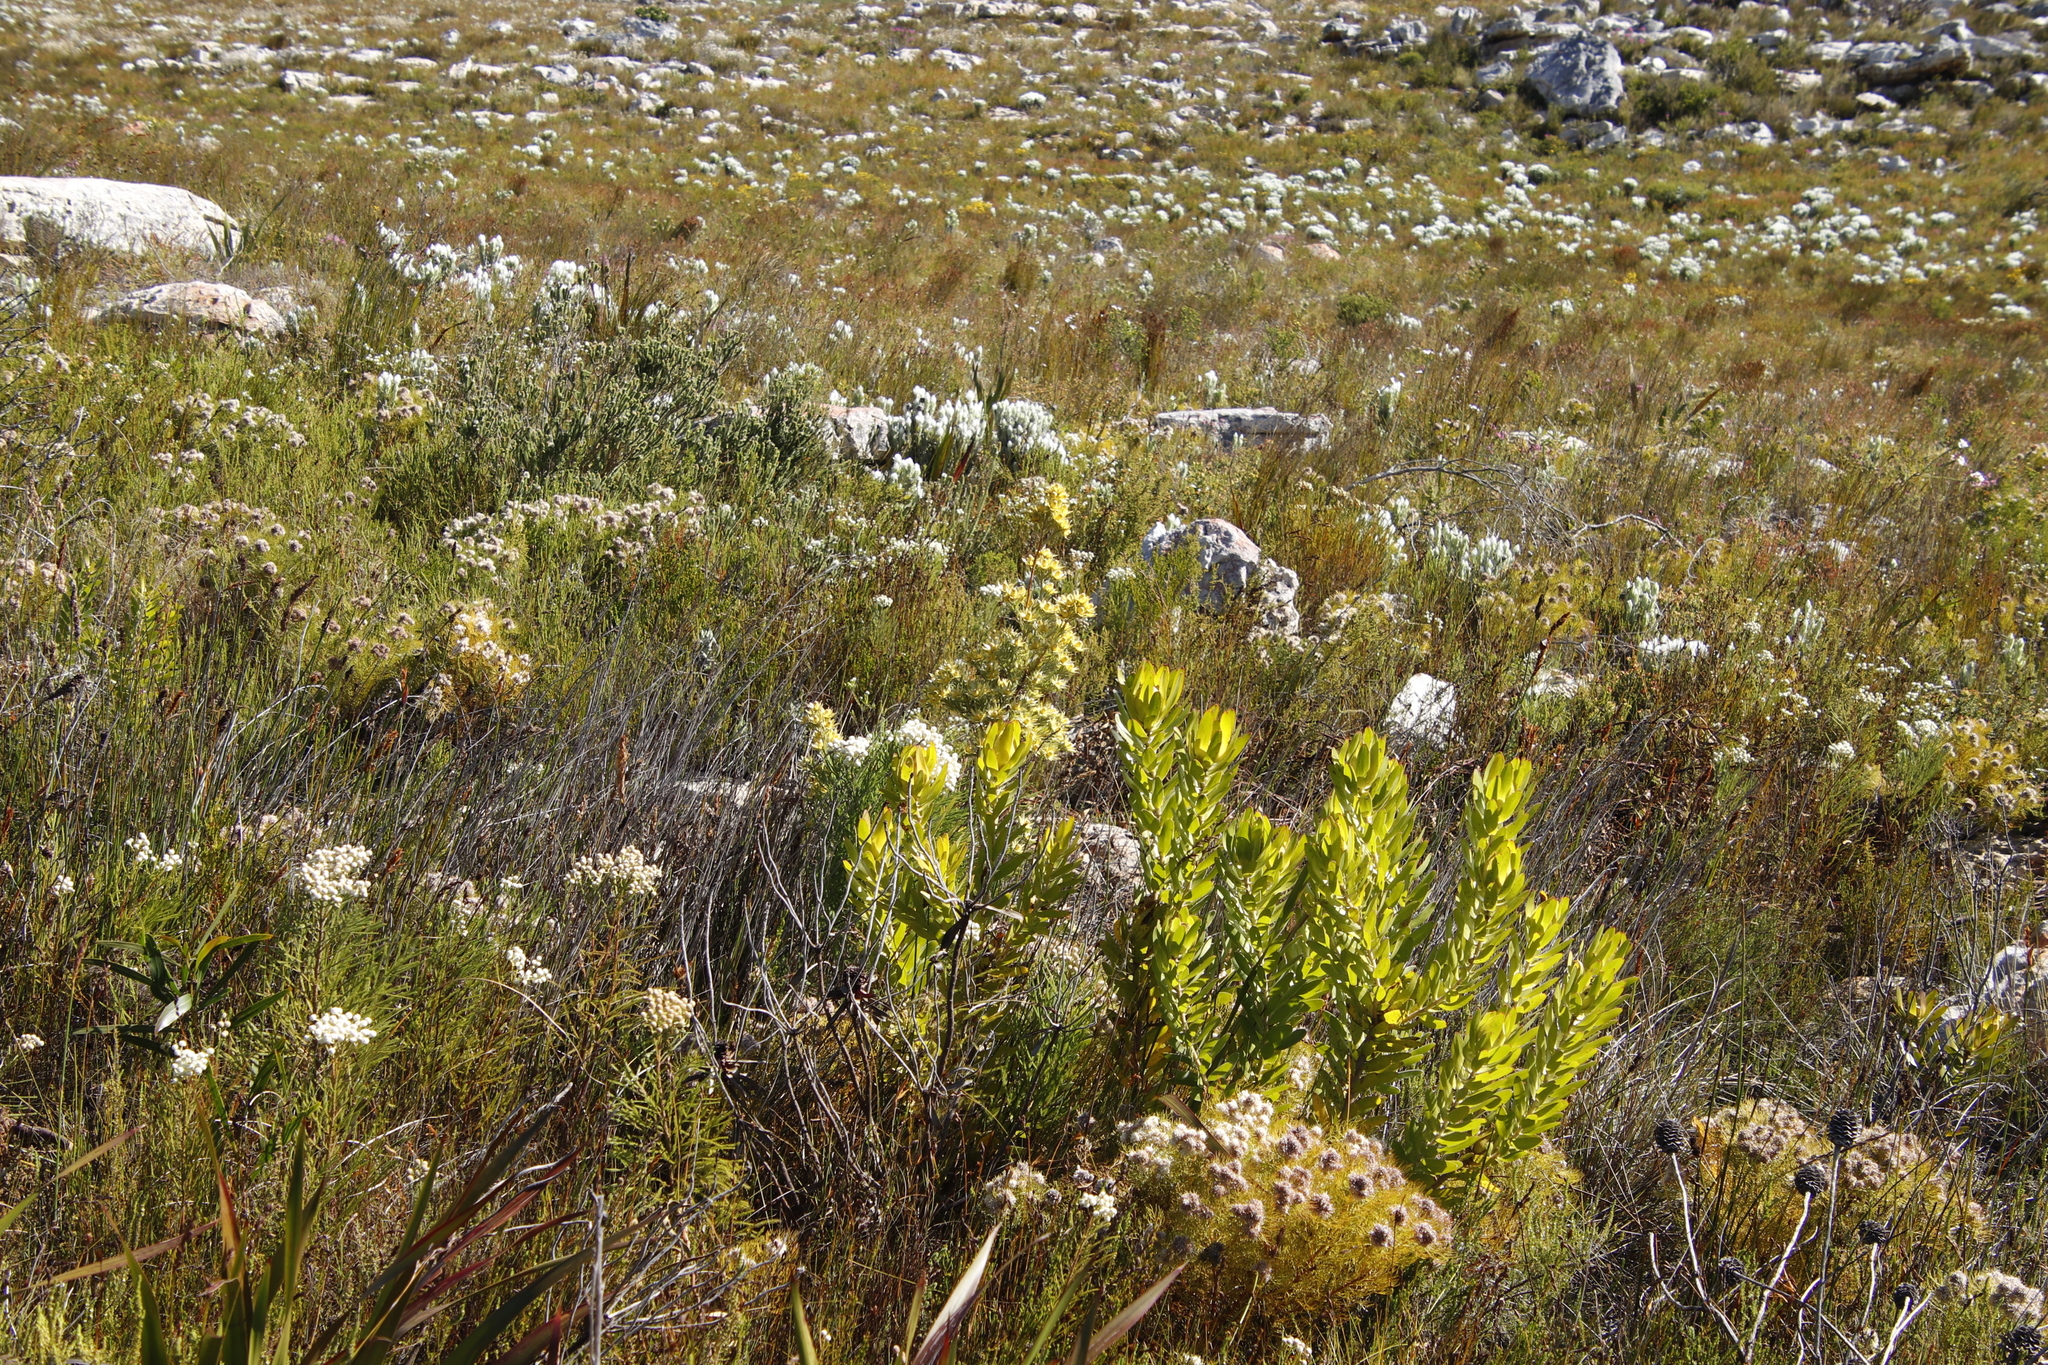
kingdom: Plantae
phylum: Tracheophyta
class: Magnoliopsida
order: Proteales
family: Proteaceae
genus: Leucadendron
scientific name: Leucadendron floridum
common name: Flats conebush
